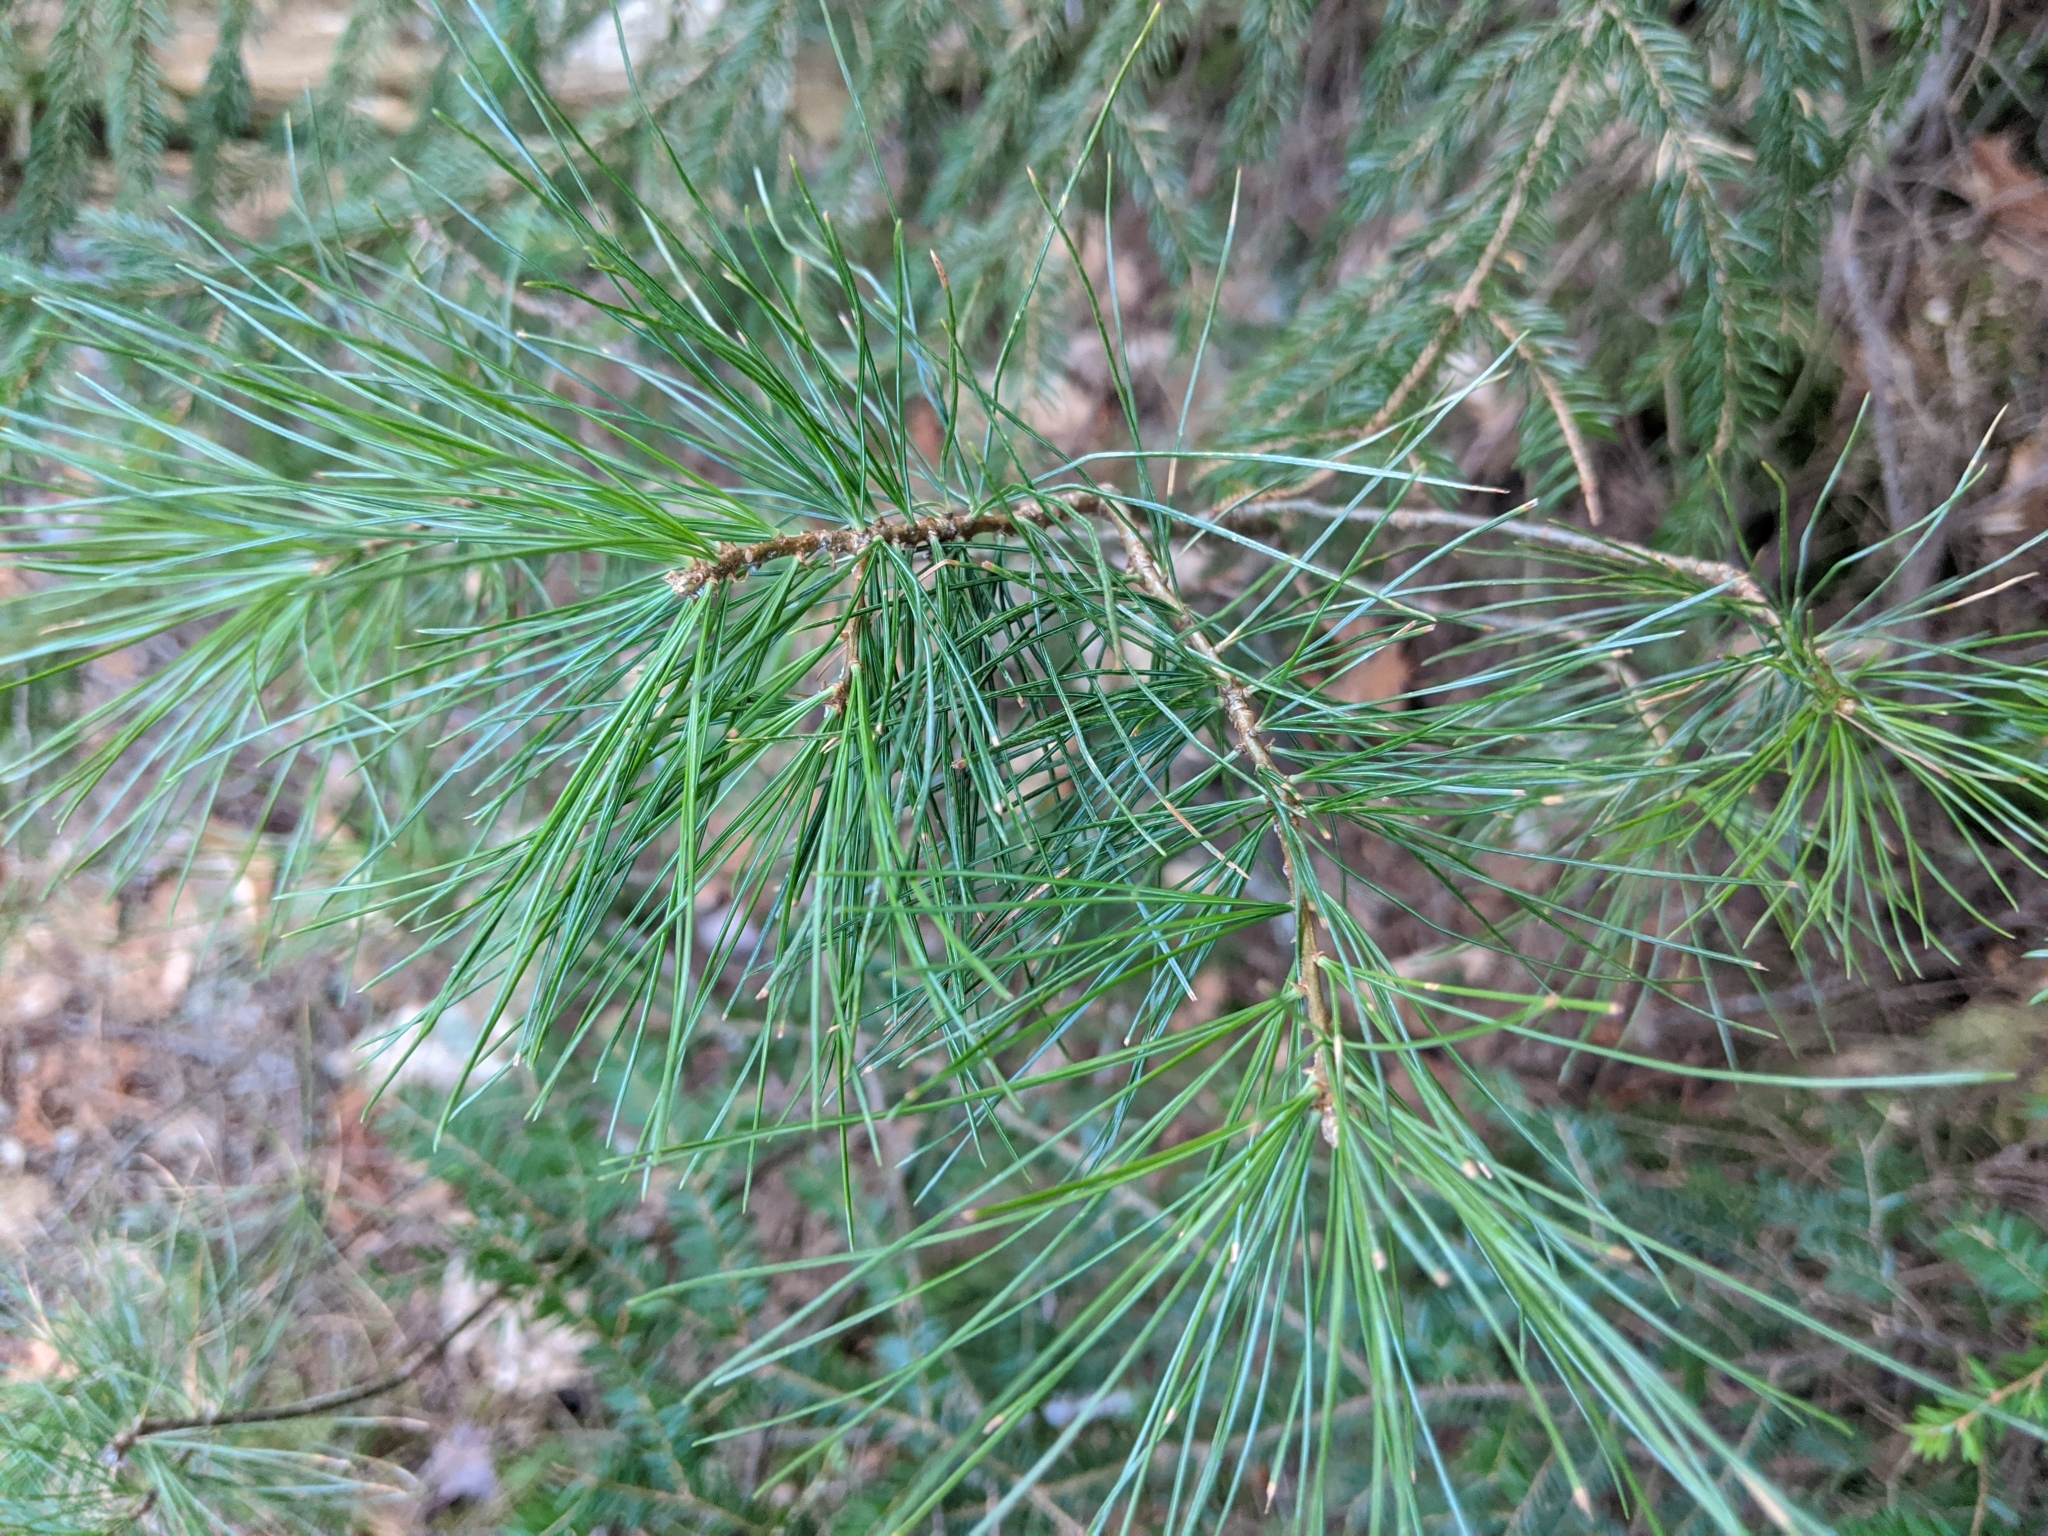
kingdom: Plantae
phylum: Tracheophyta
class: Pinopsida
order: Pinales
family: Pinaceae
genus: Pinus
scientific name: Pinus strobus
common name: Weymouth pine
